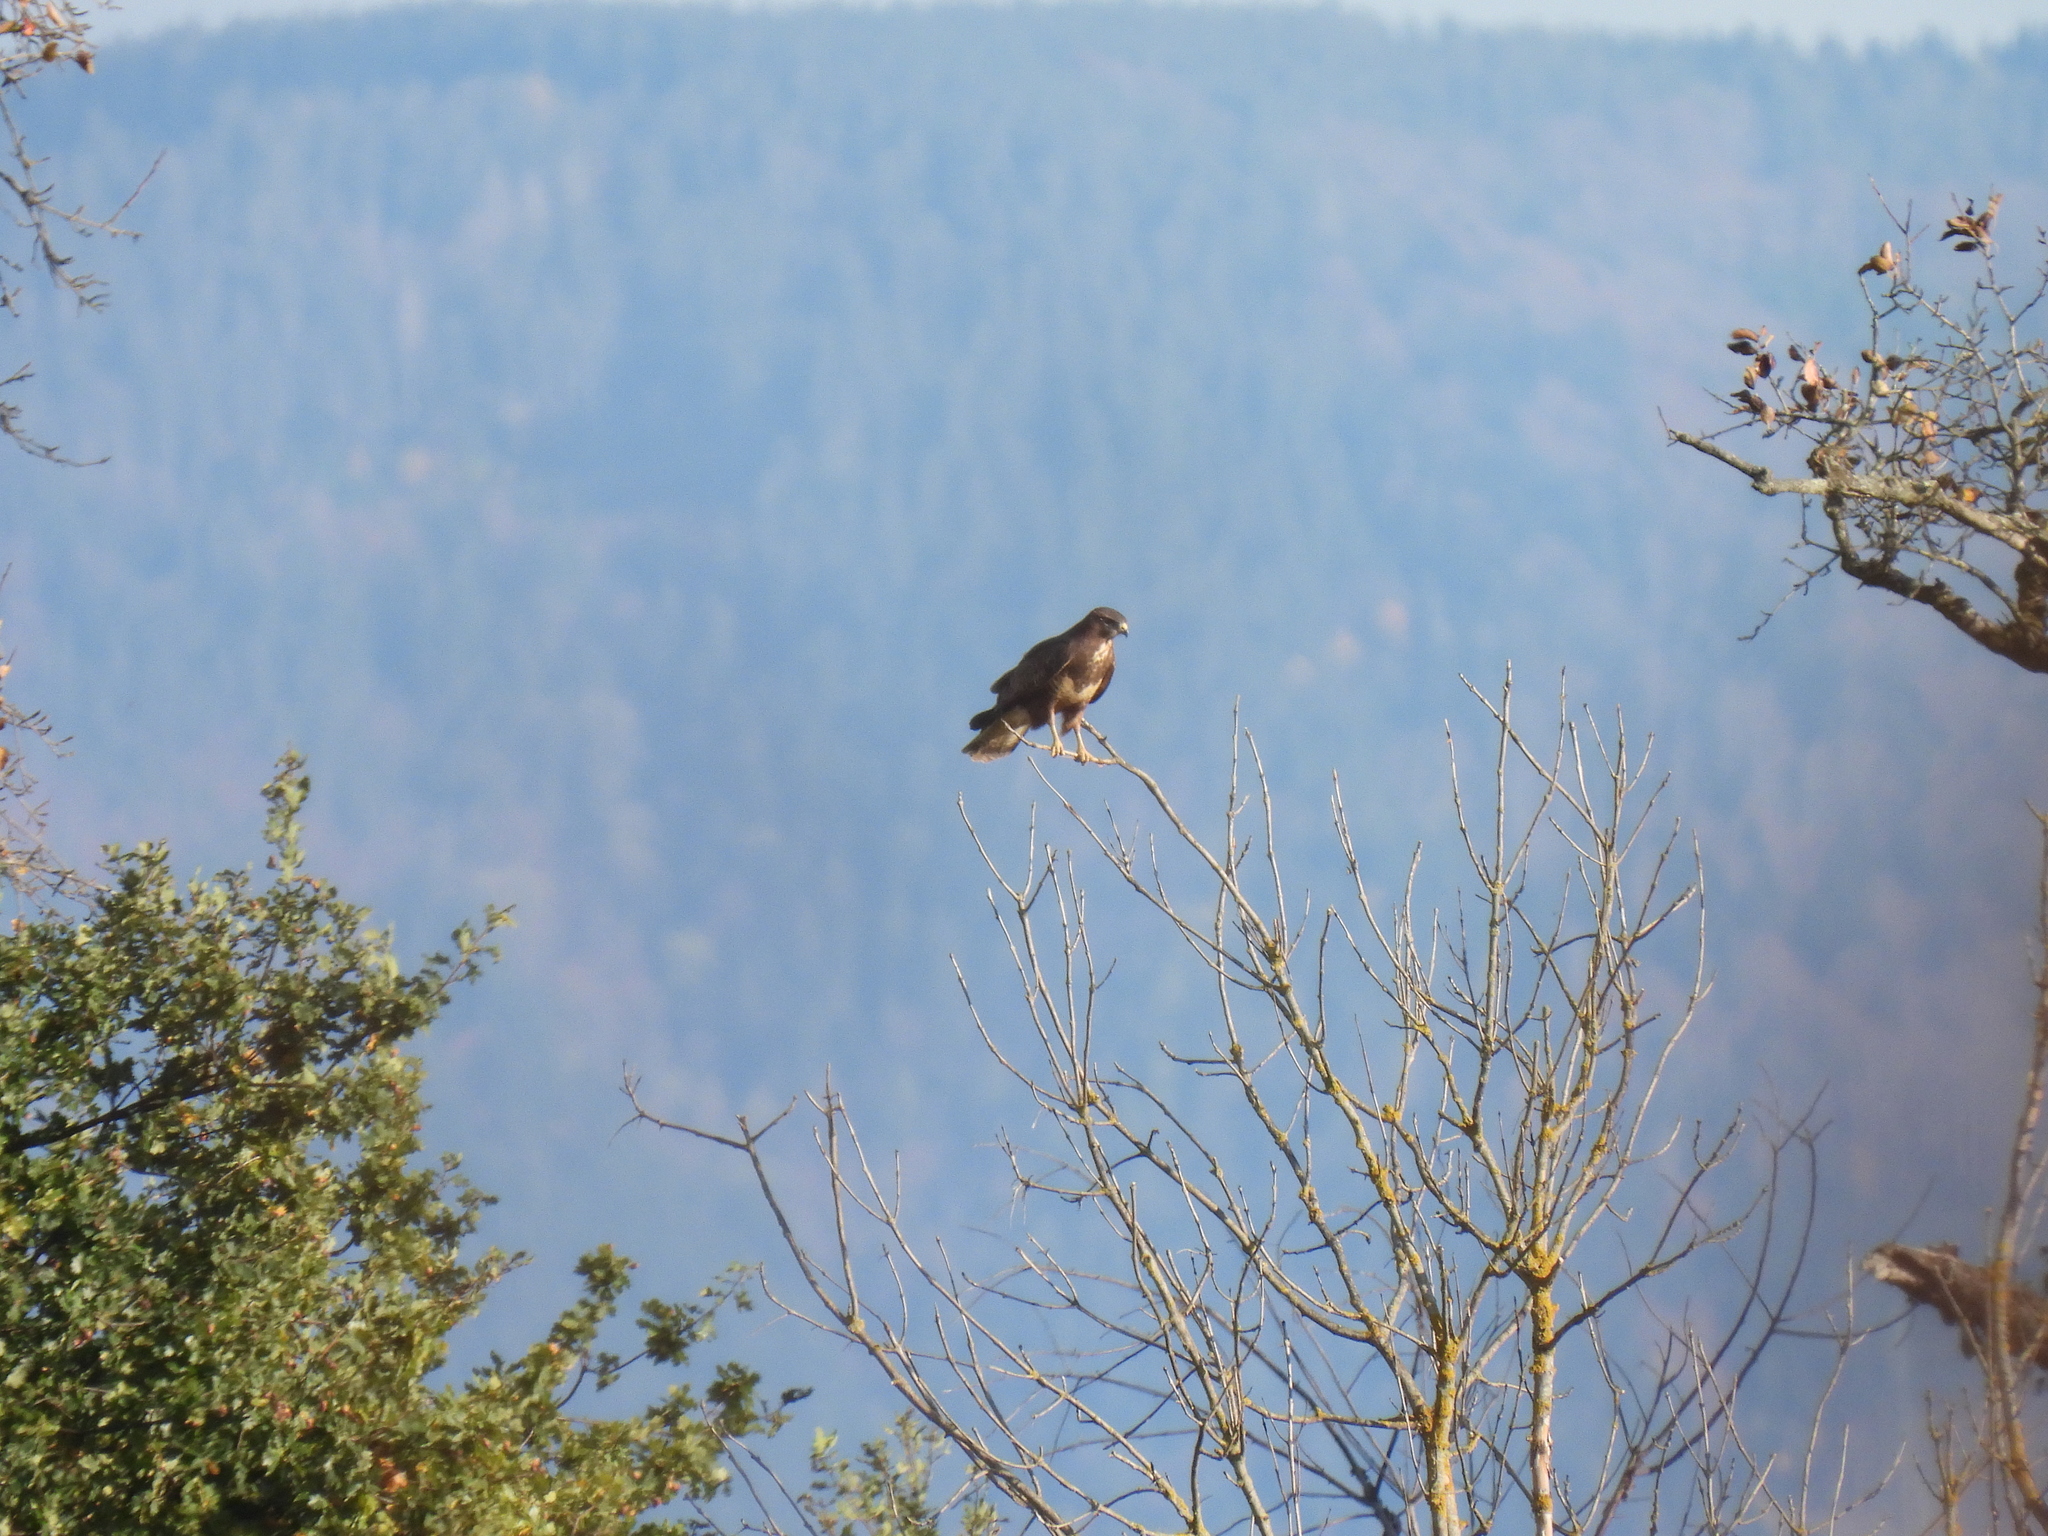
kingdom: Animalia
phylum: Chordata
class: Aves
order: Accipitriformes
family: Accipitridae
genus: Buteo
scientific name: Buteo buteo
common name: Common buzzard
